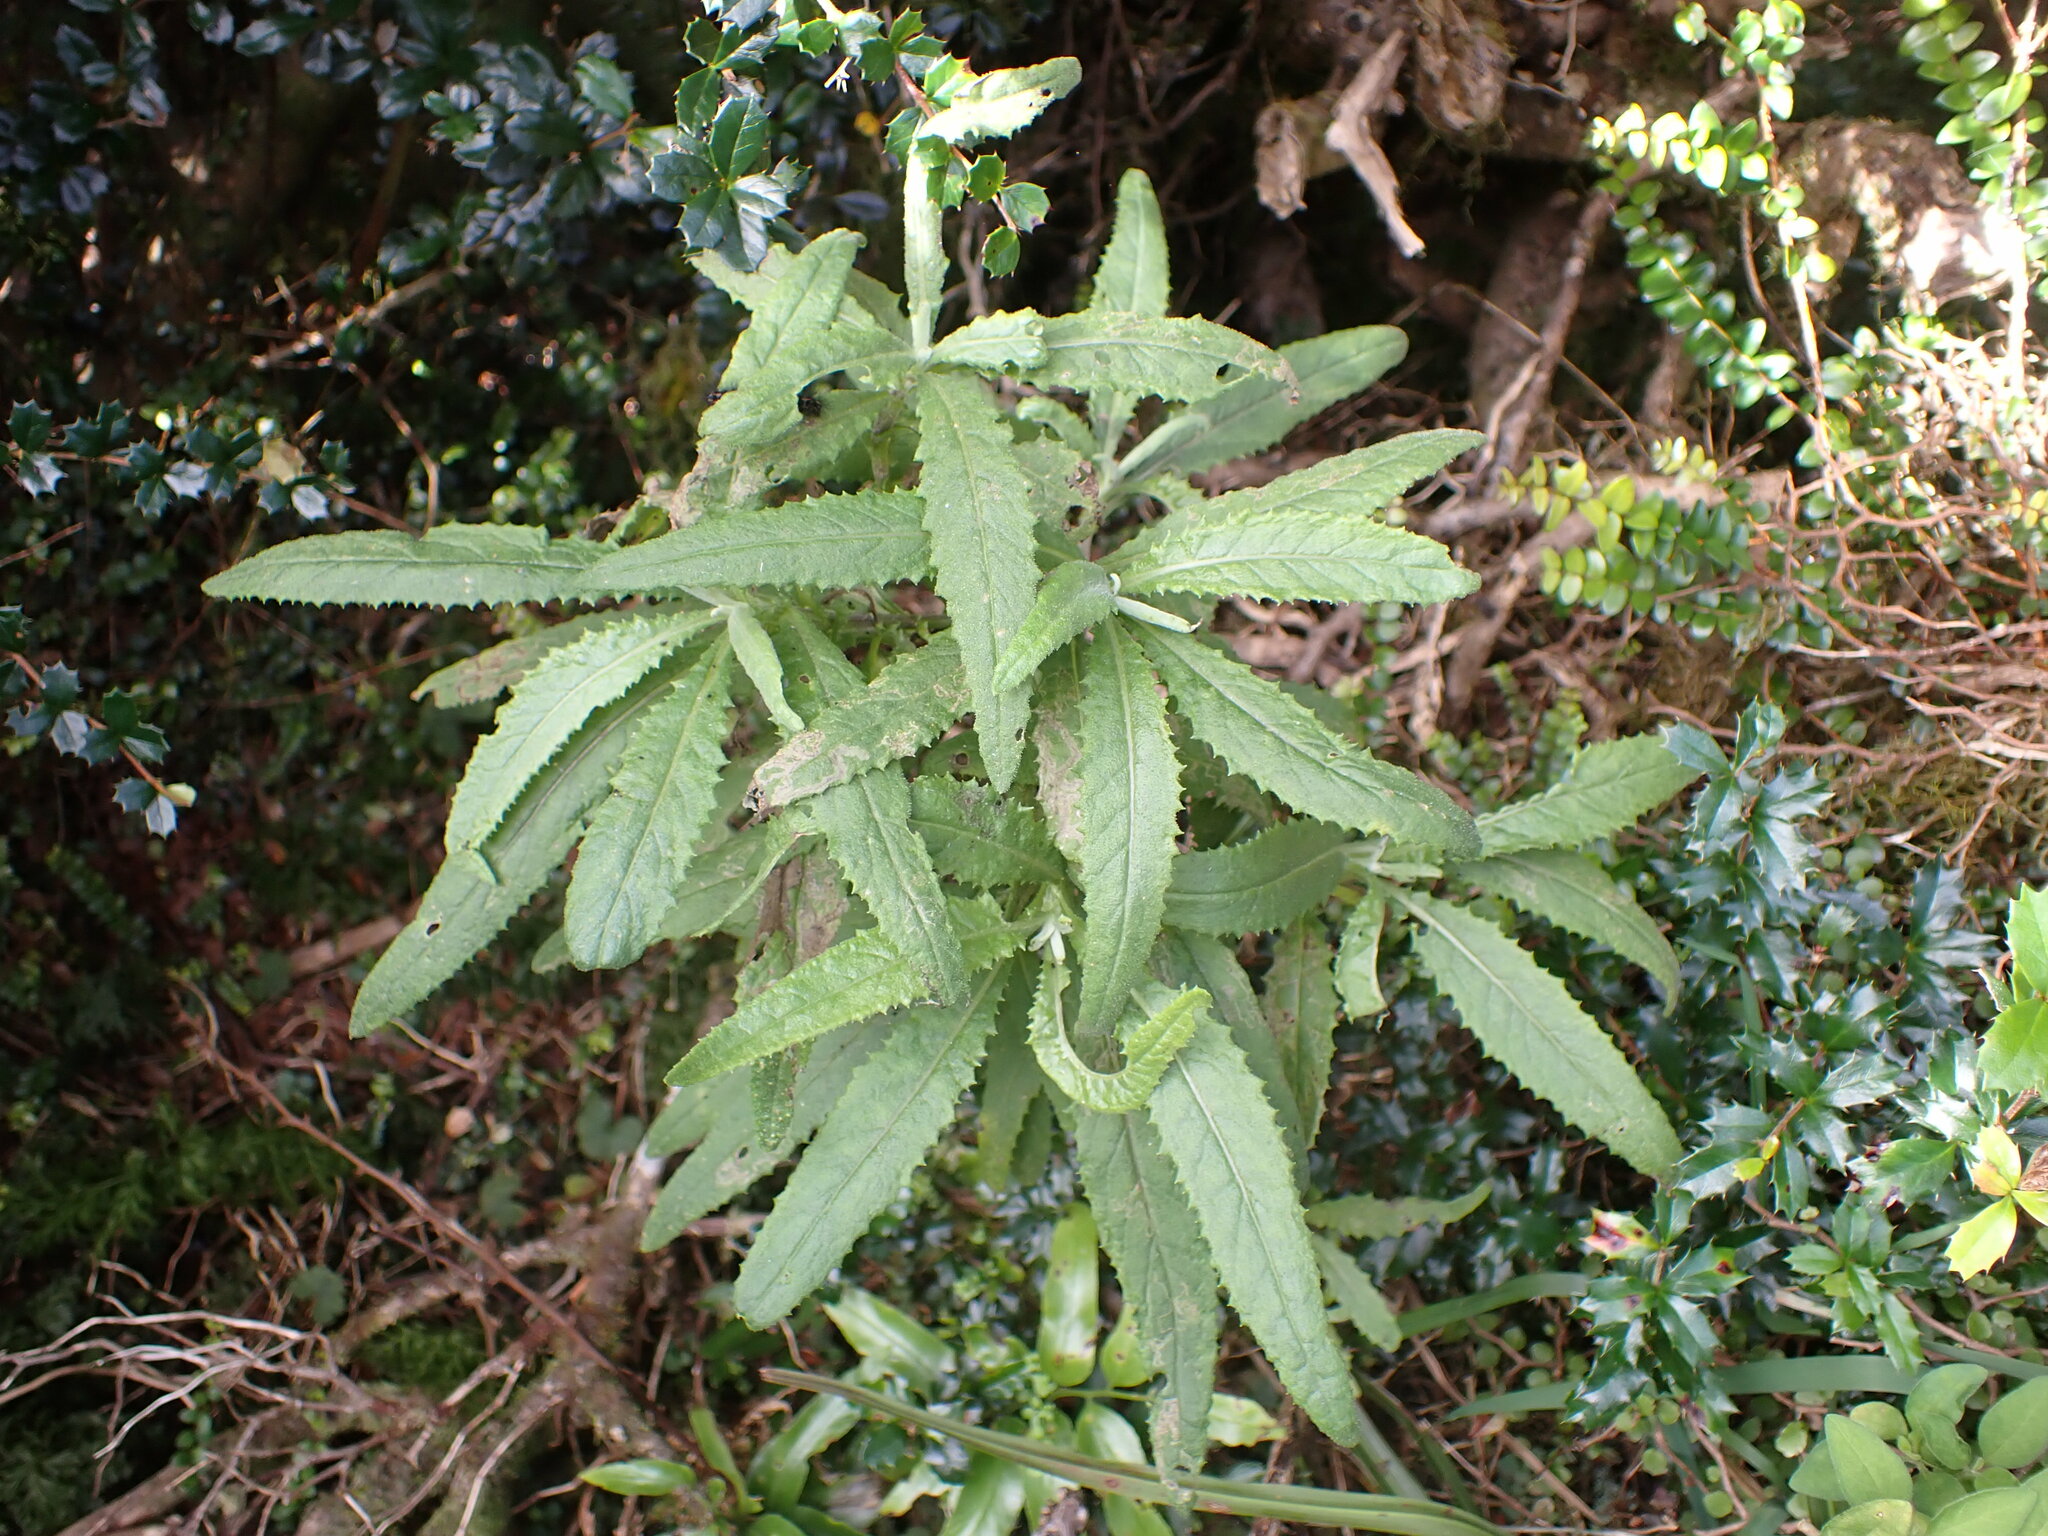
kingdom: Plantae
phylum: Tracheophyta
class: Magnoliopsida
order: Asterales
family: Asteraceae
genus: Senecio
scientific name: Senecio minimus
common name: Toothed fireweed
